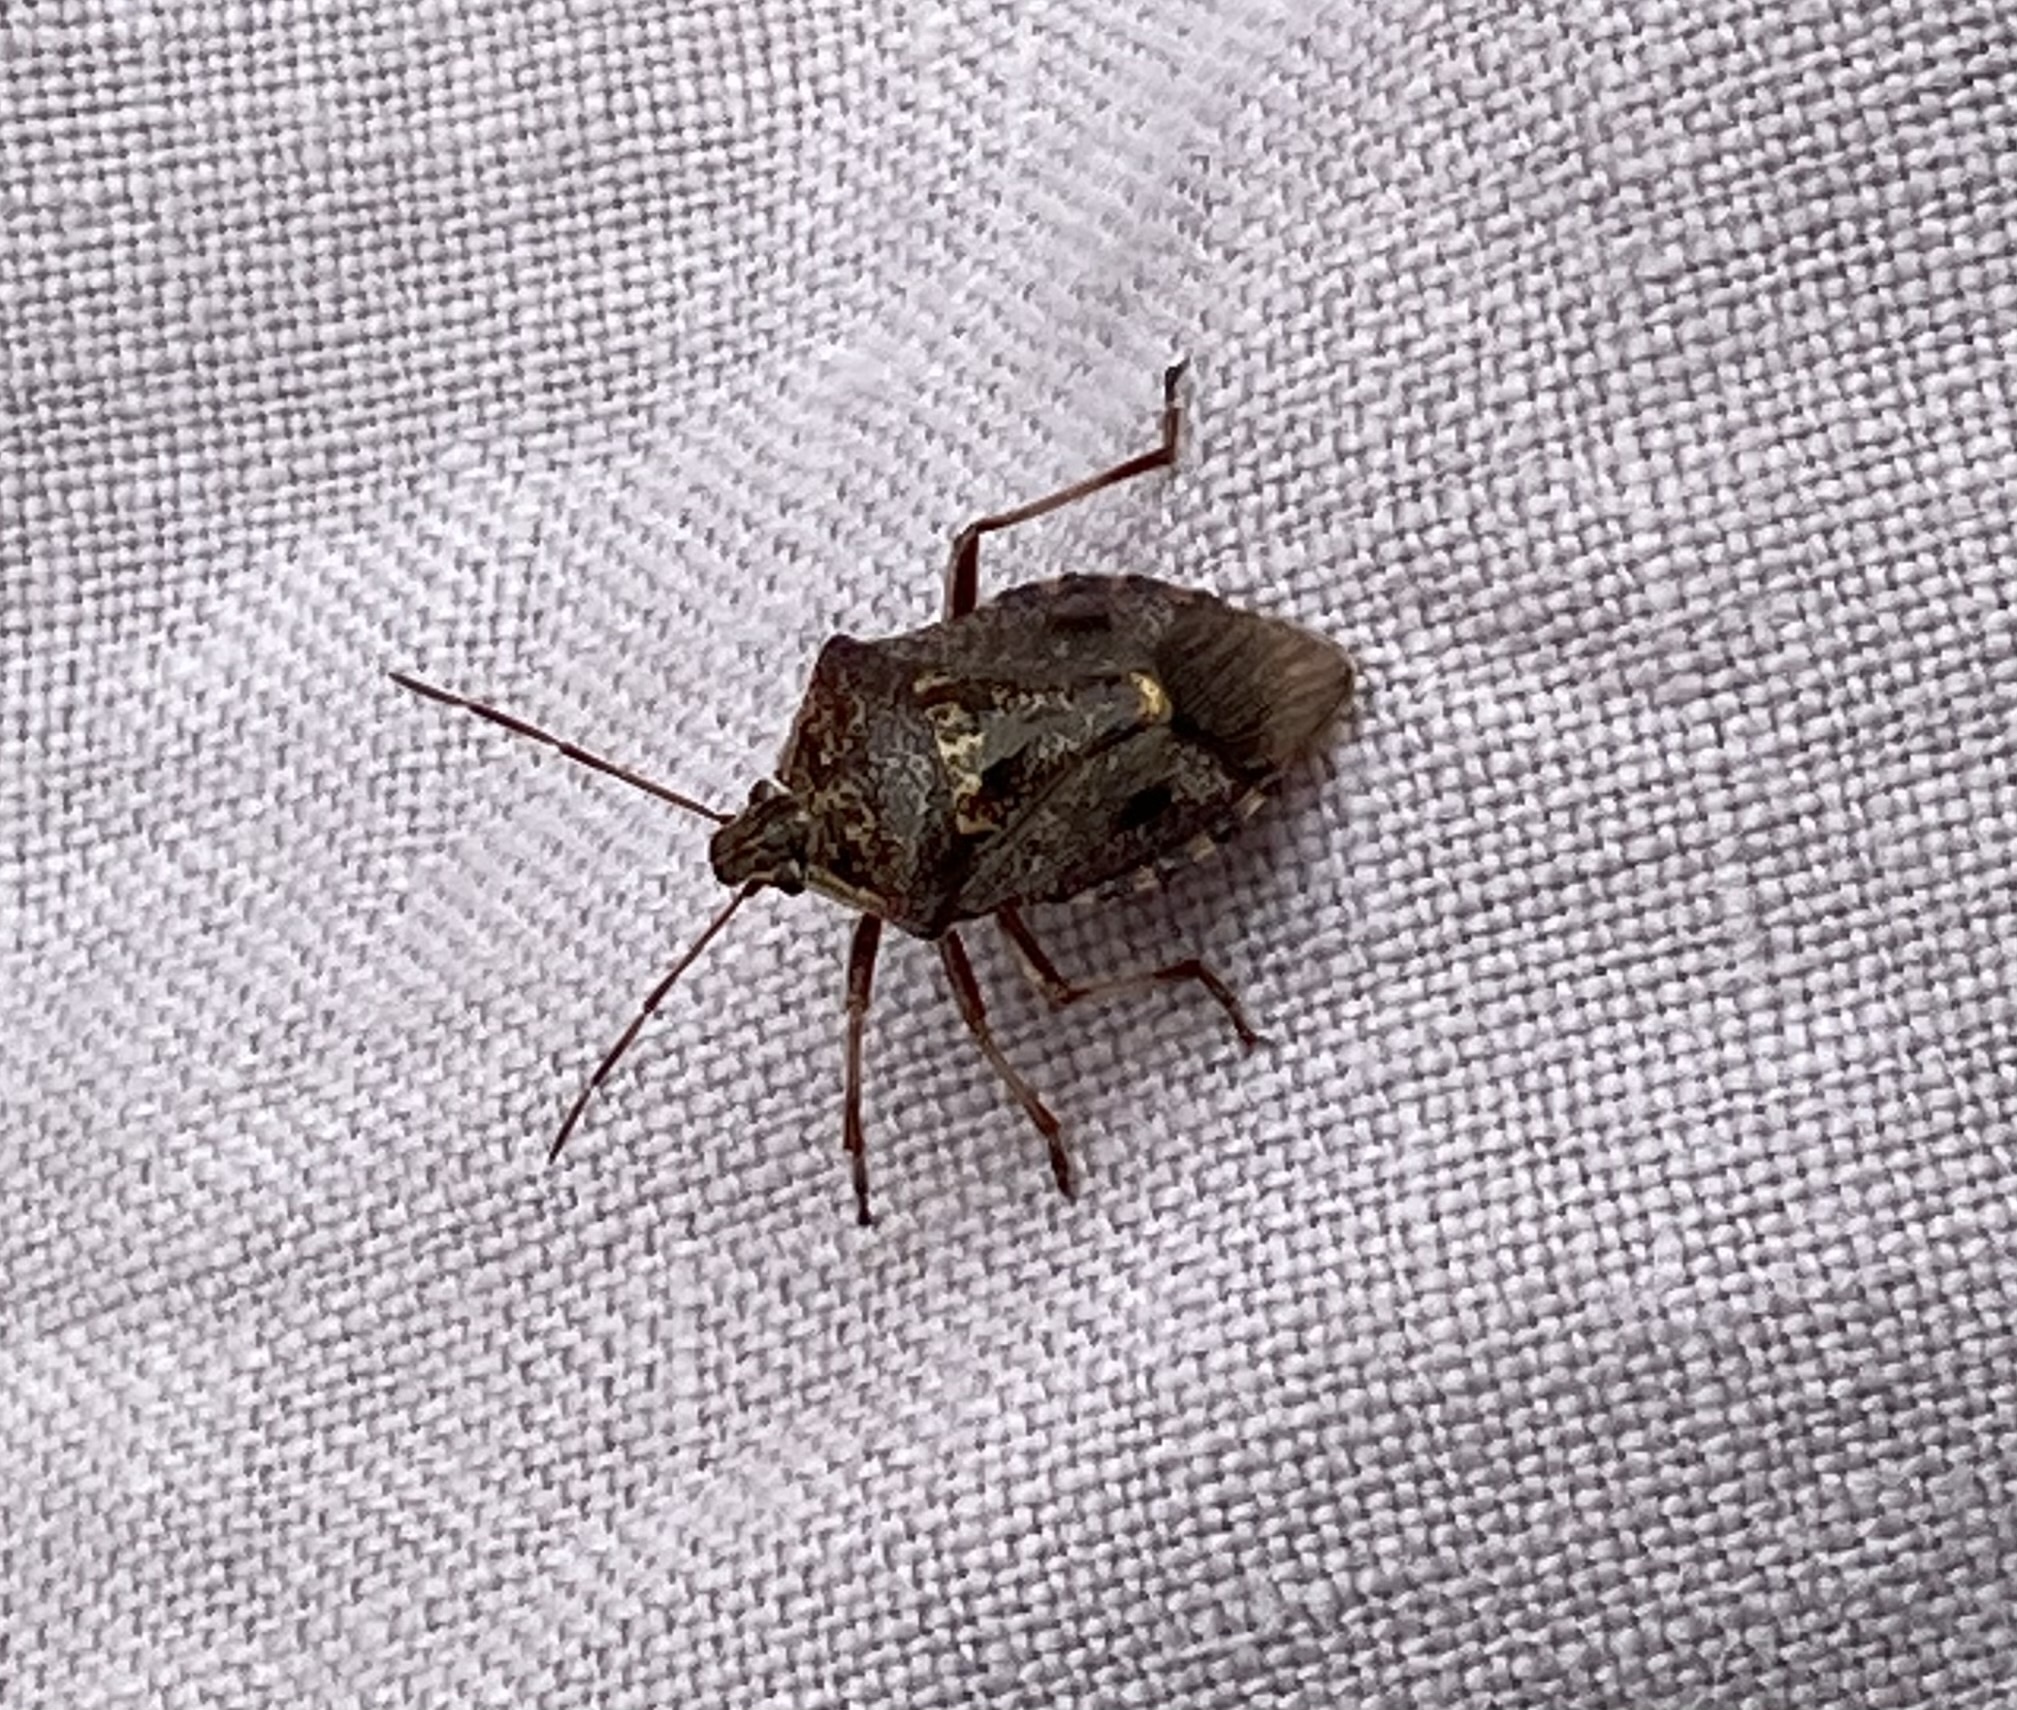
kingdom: Animalia
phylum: Arthropoda
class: Insecta
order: Hemiptera
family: Pentatomidae
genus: Cermatulus
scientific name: Cermatulus nasalis
